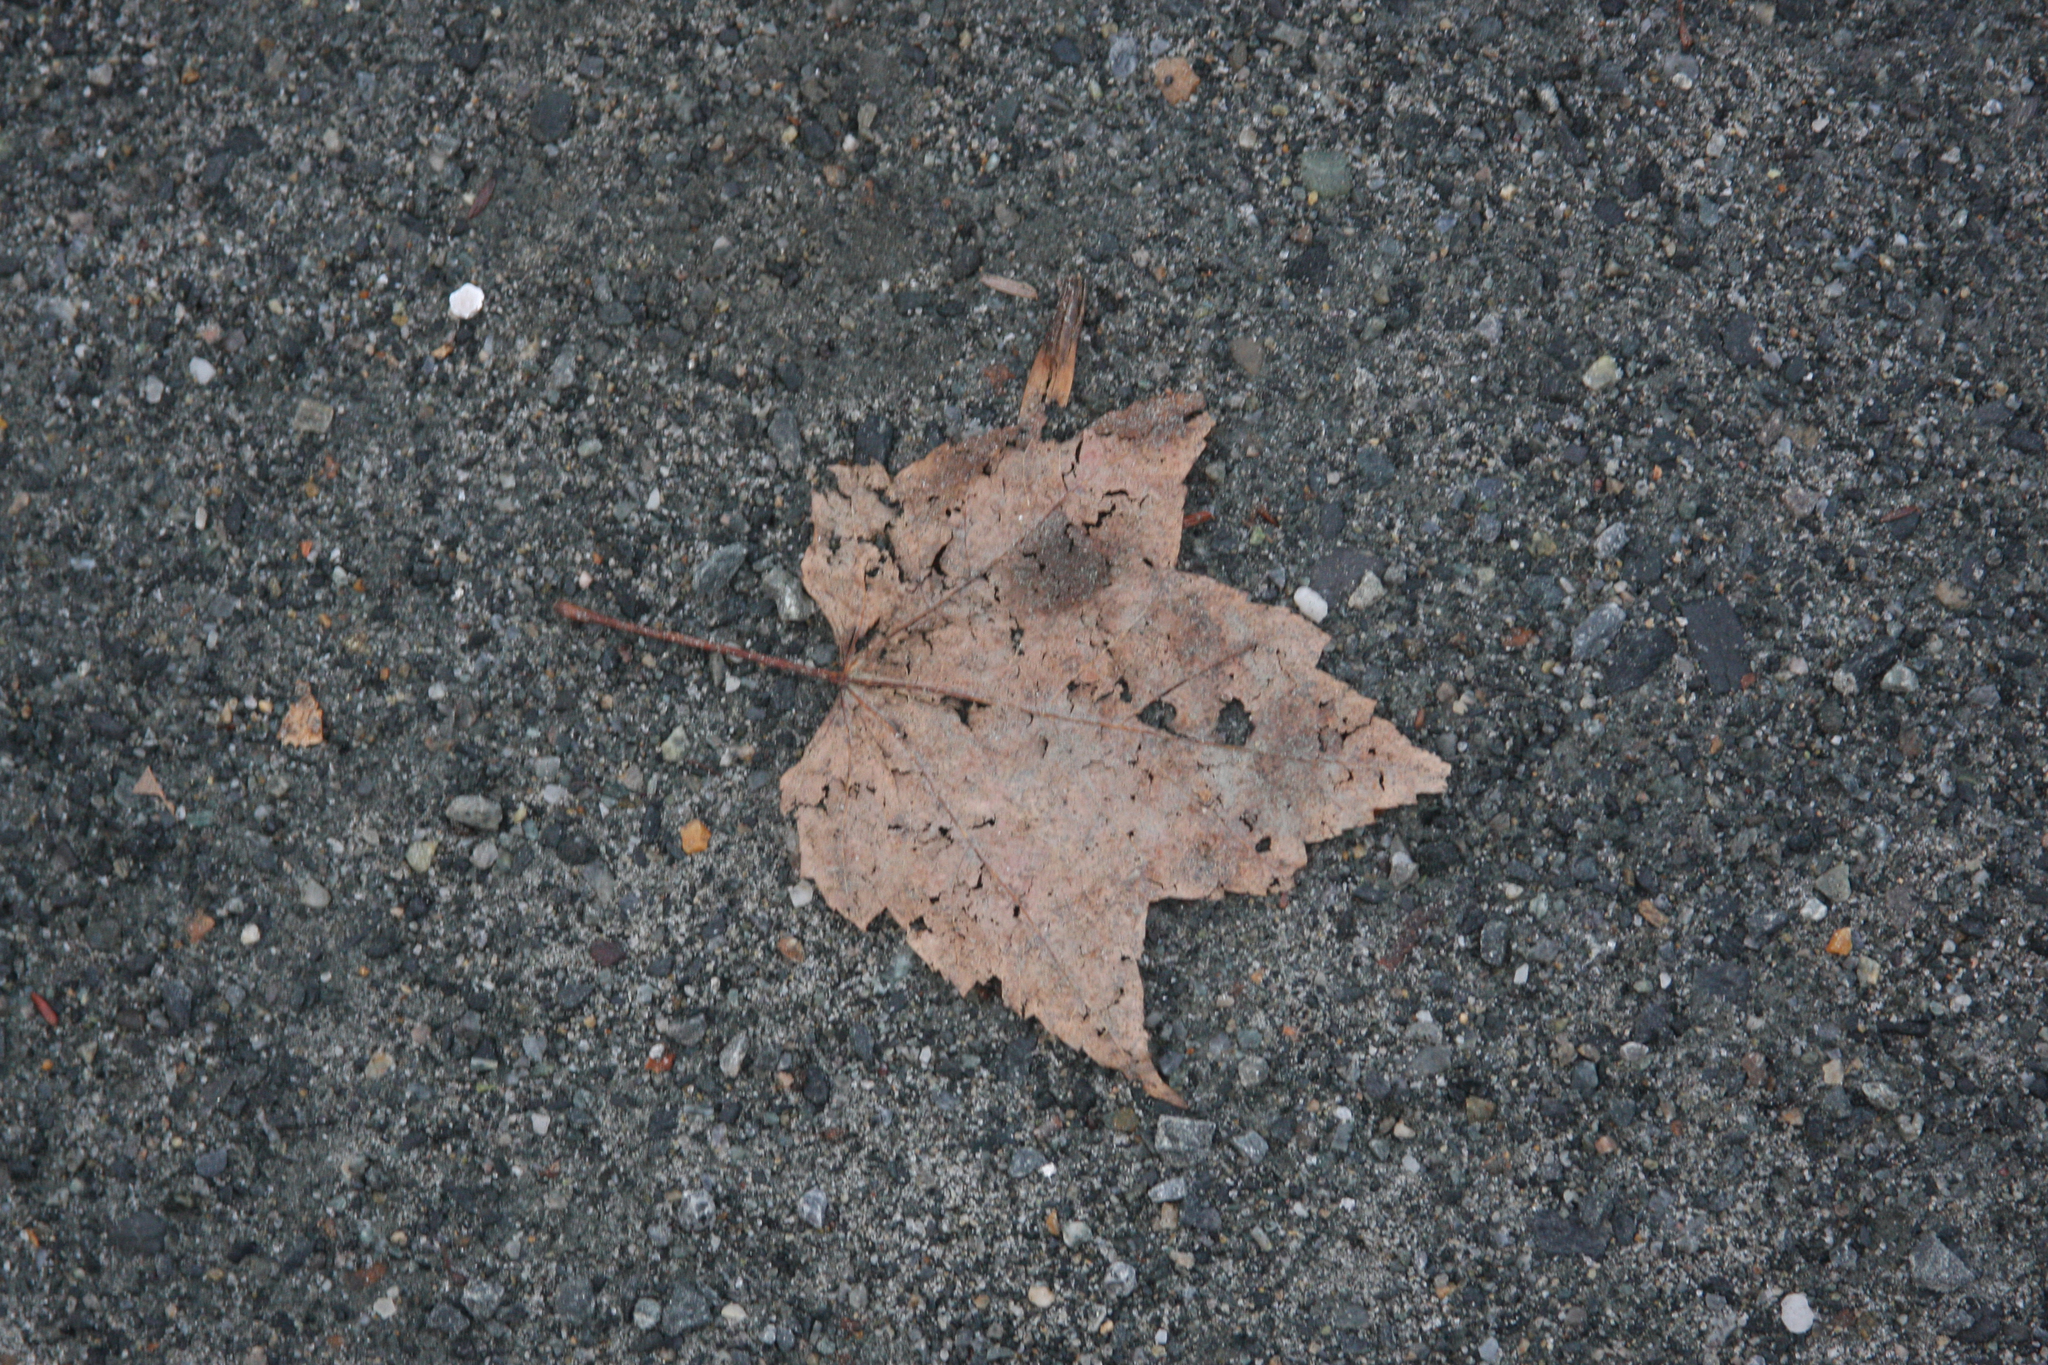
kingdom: Plantae
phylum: Tracheophyta
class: Magnoliopsida
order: Sapindales
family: Sapindaceae
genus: Acer
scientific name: Acer rubrum
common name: Red maple
